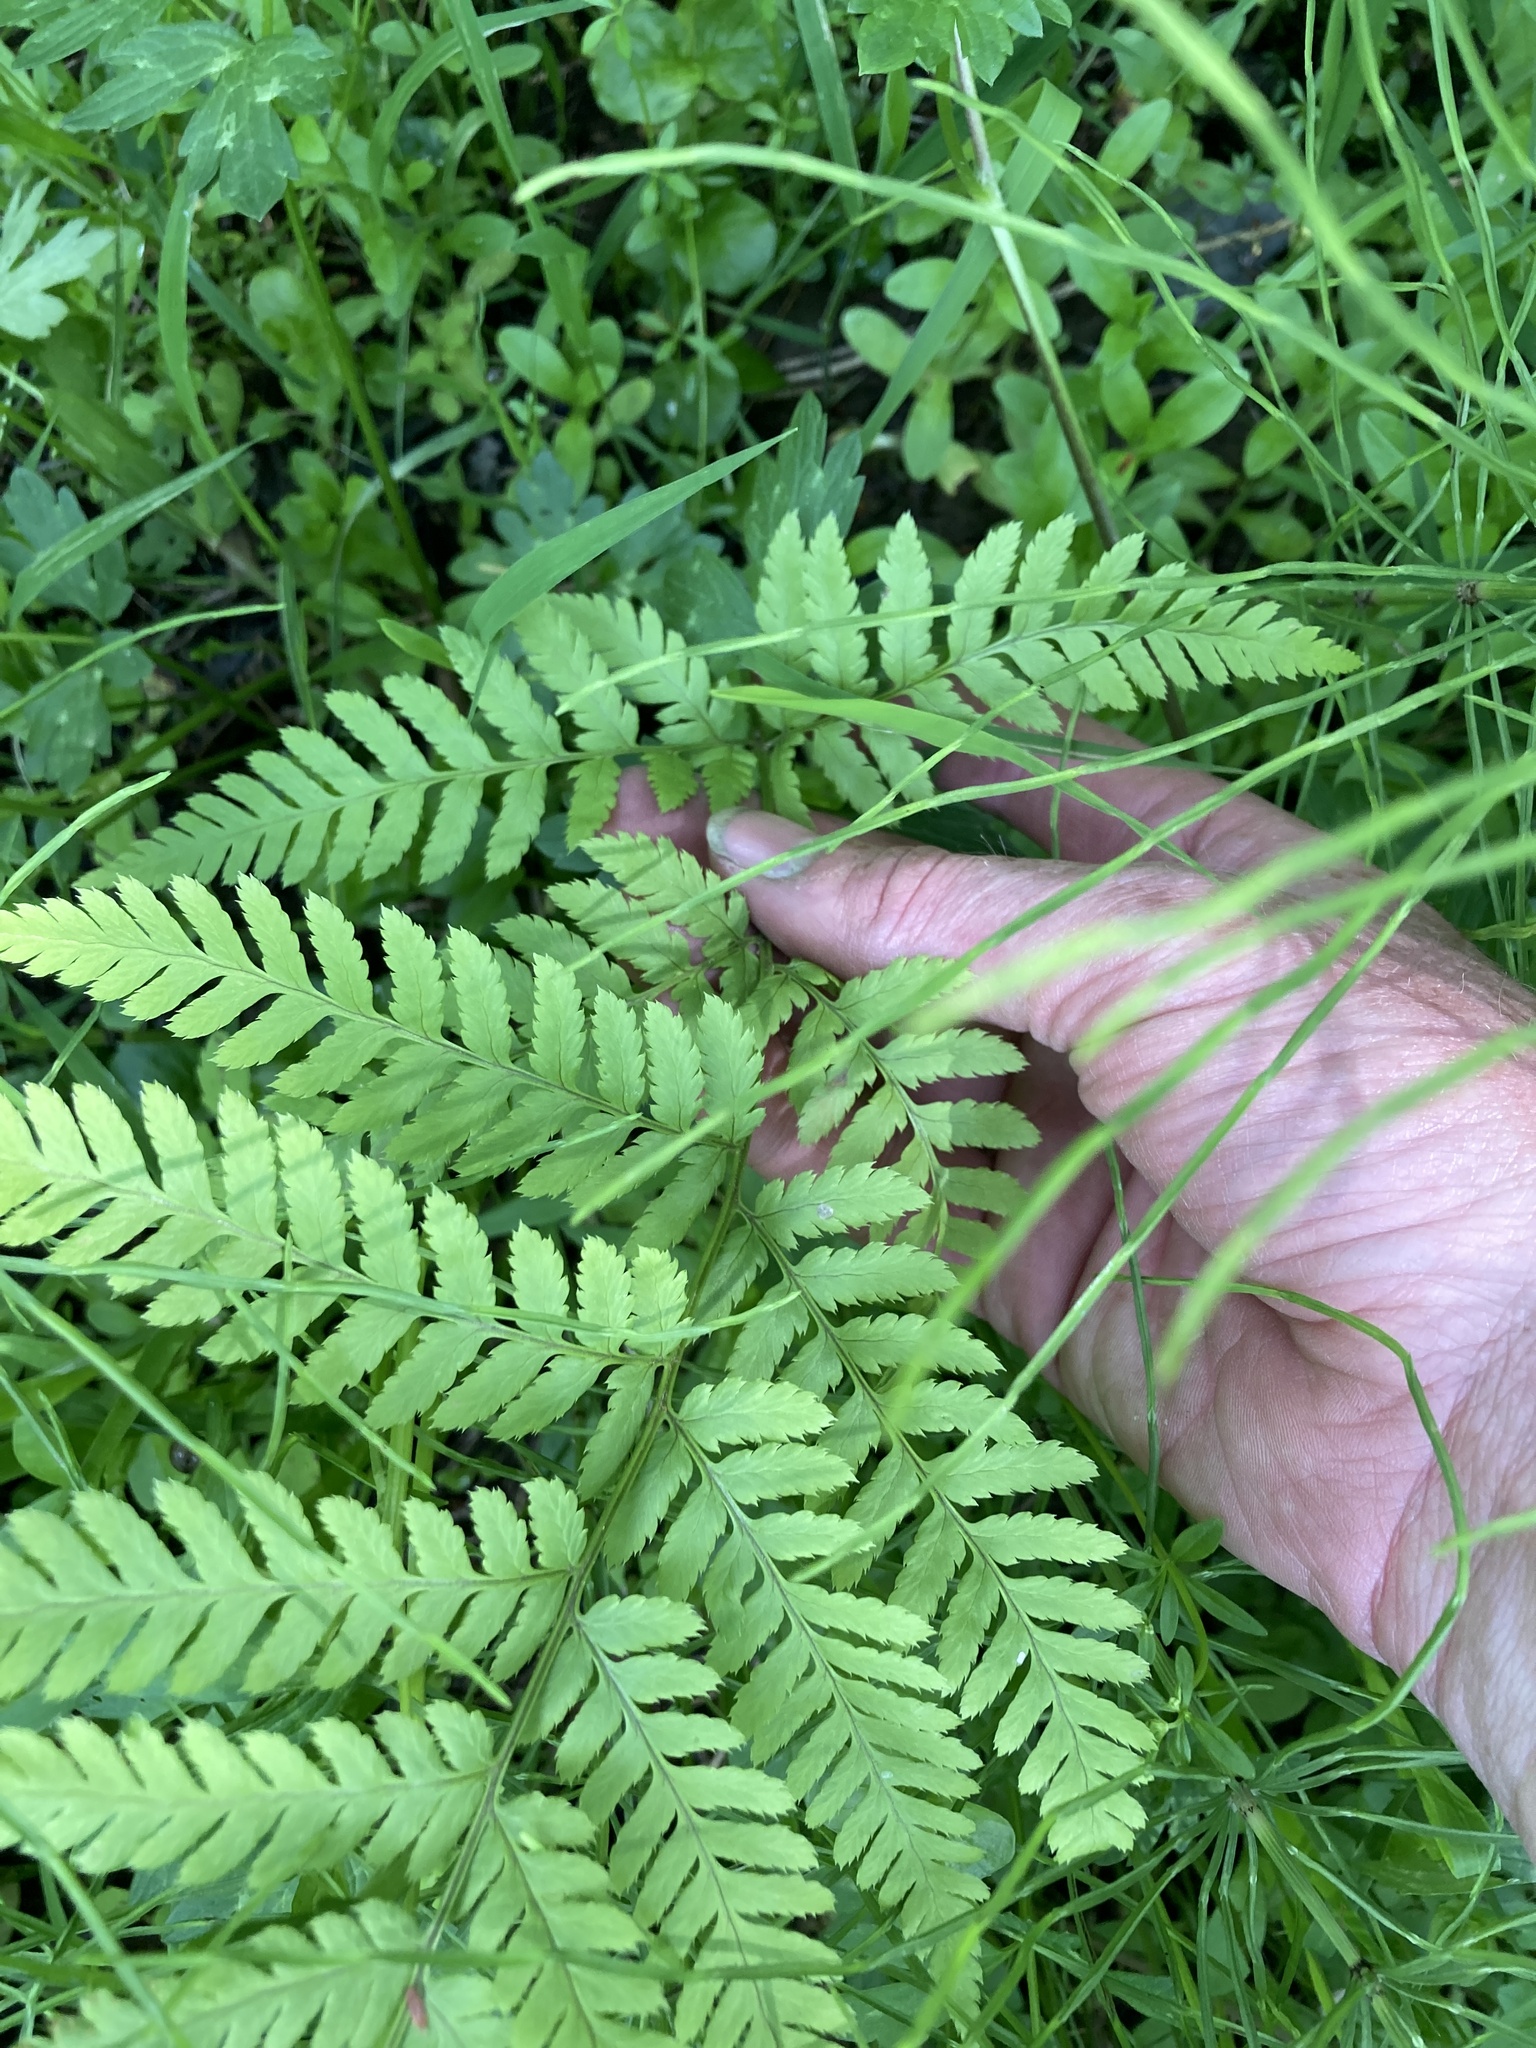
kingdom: Plantae
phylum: Tracheophyta
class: Polypodiopsida
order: Polypodiales
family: Dryopteridaceae
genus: Dryopteris
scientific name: Dryopteris carthusiana
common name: Narrow buckler-fern
